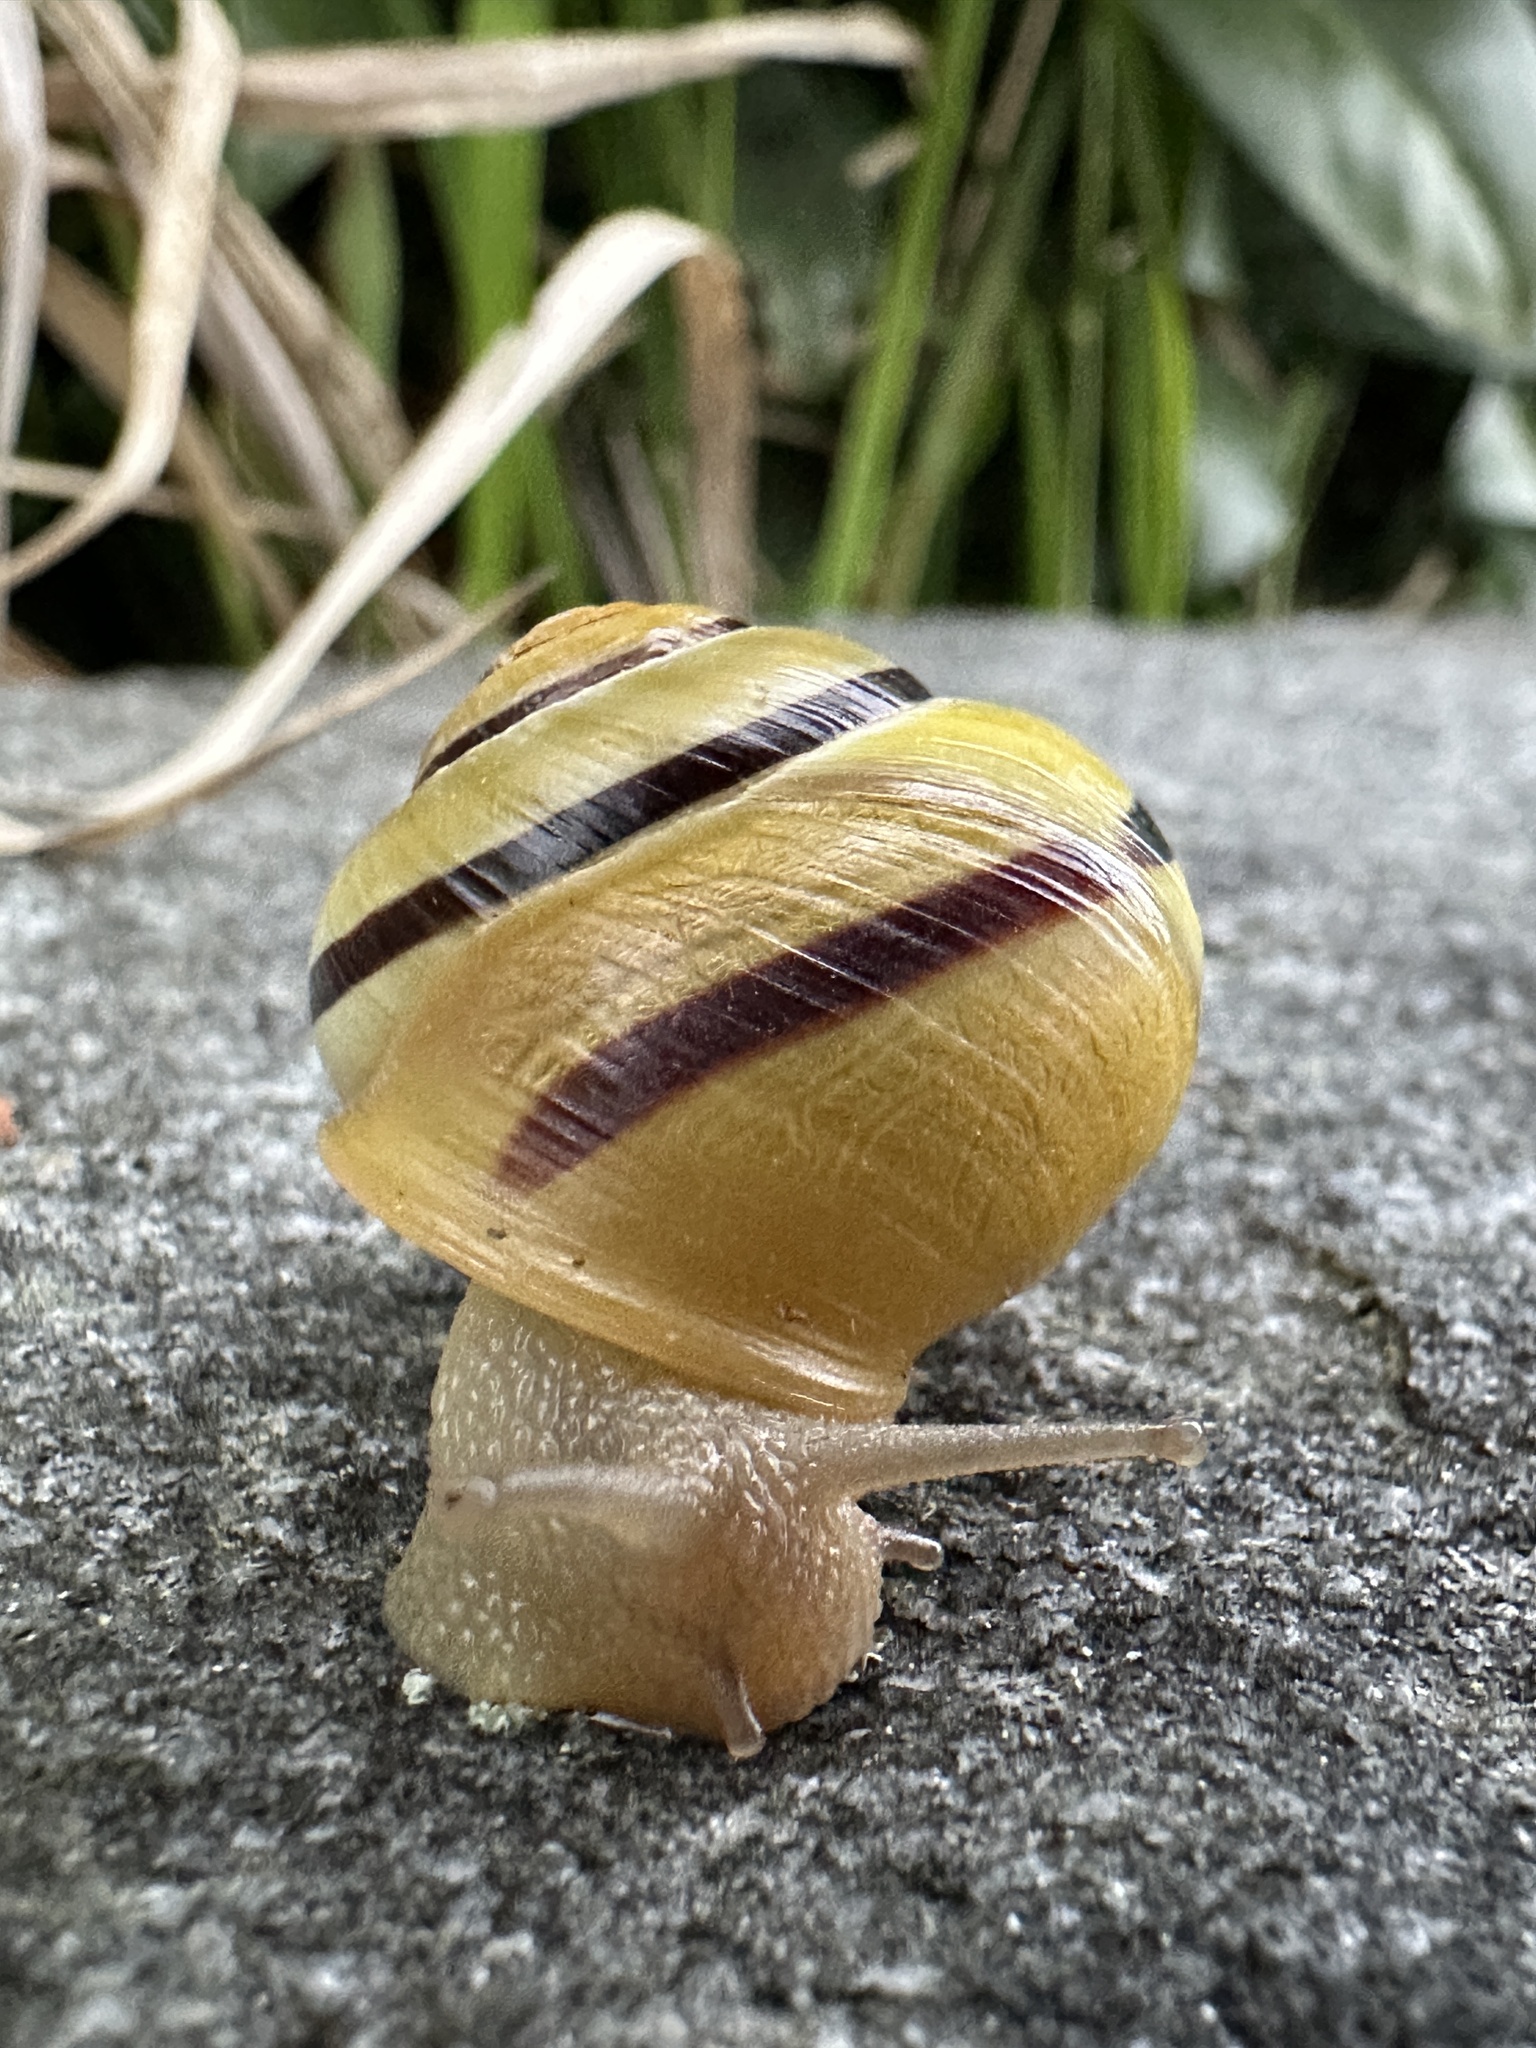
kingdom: Animalia
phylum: Mollusca
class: Gastropoda
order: Stylommatophora
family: Helicidae
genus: Cepaea
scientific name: Cepaea nemoralis
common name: Grovesnail
